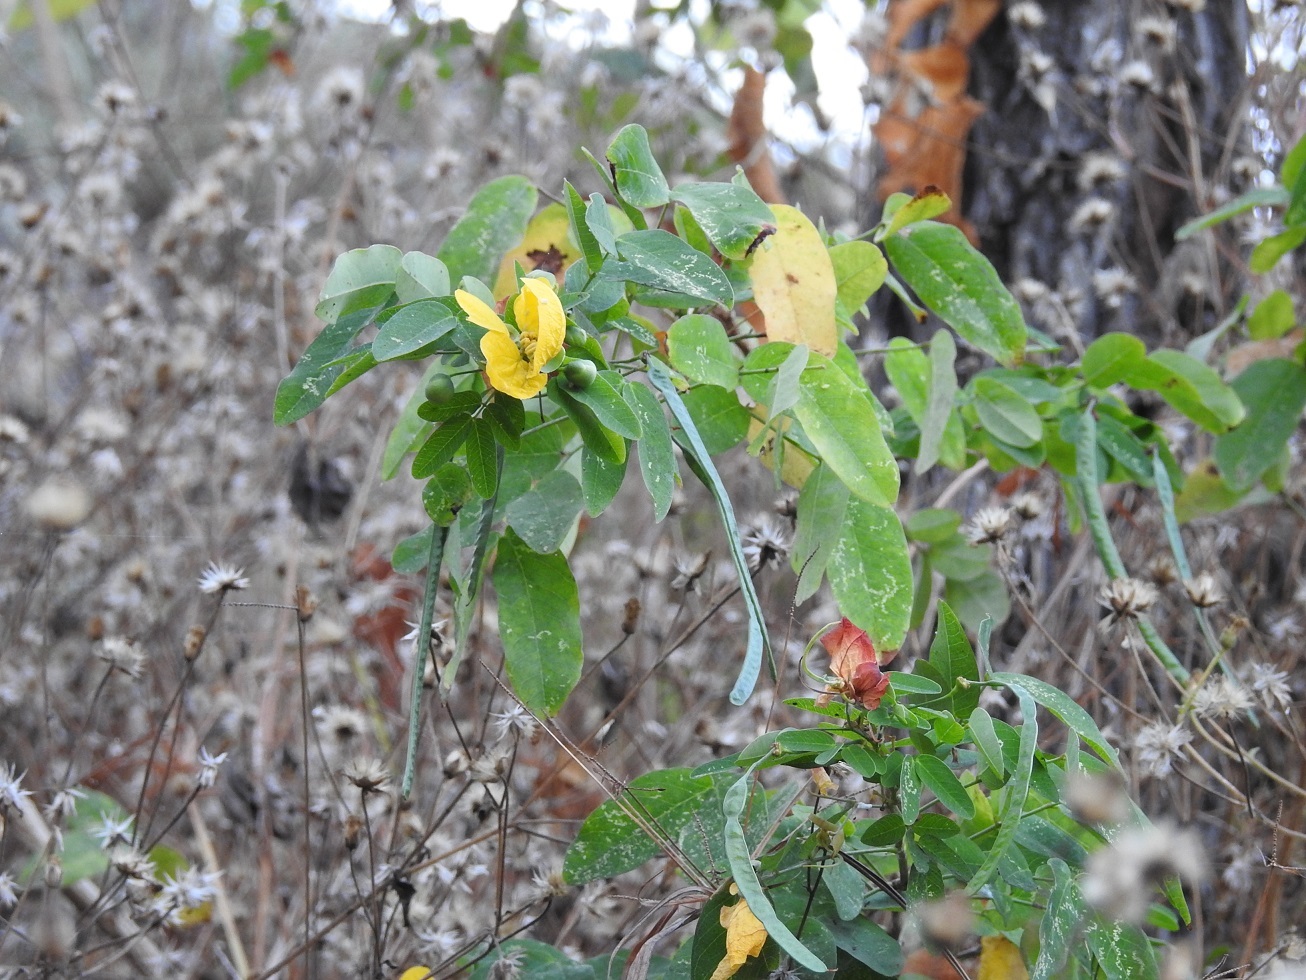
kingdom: Plantae
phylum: Tracheophyta
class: Magnoliopsida
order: Fabales
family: Fabaceae
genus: Senna
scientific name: Senna holwayana
